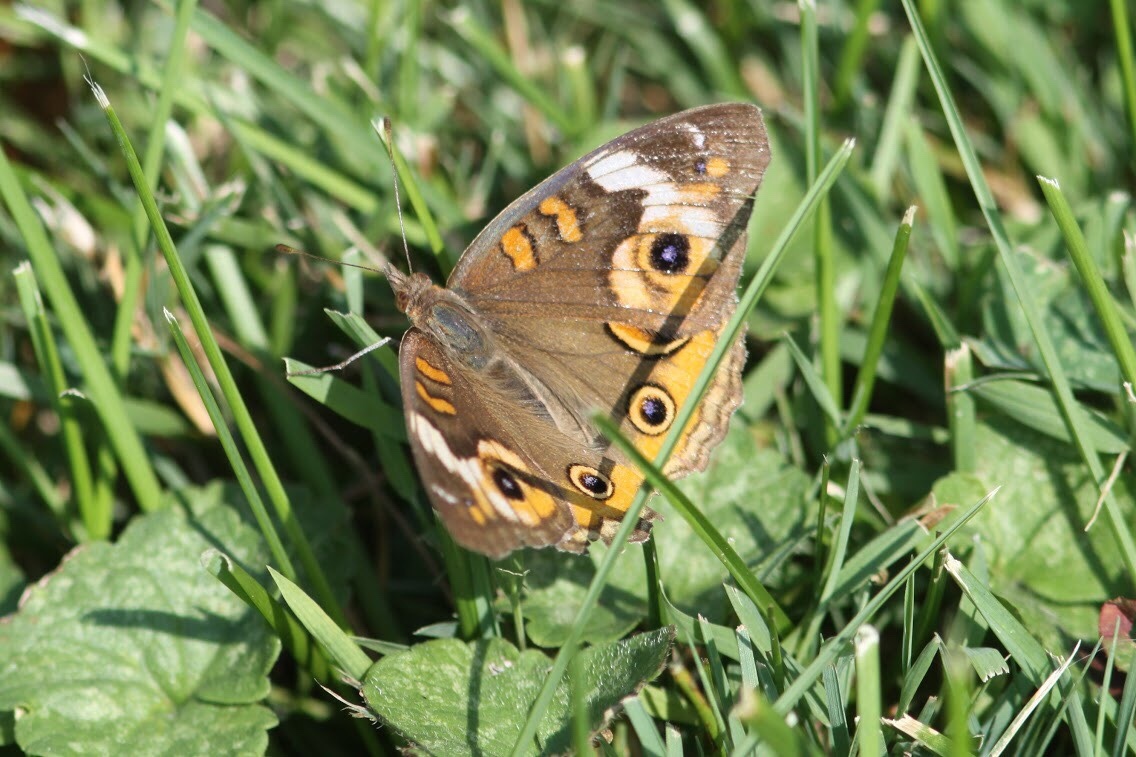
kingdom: Animalia
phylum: Arthropoda
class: Insecta
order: Lepidoptera
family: Nymphalidae
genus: Junonia
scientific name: Junonia coenia
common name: Common buckeye
